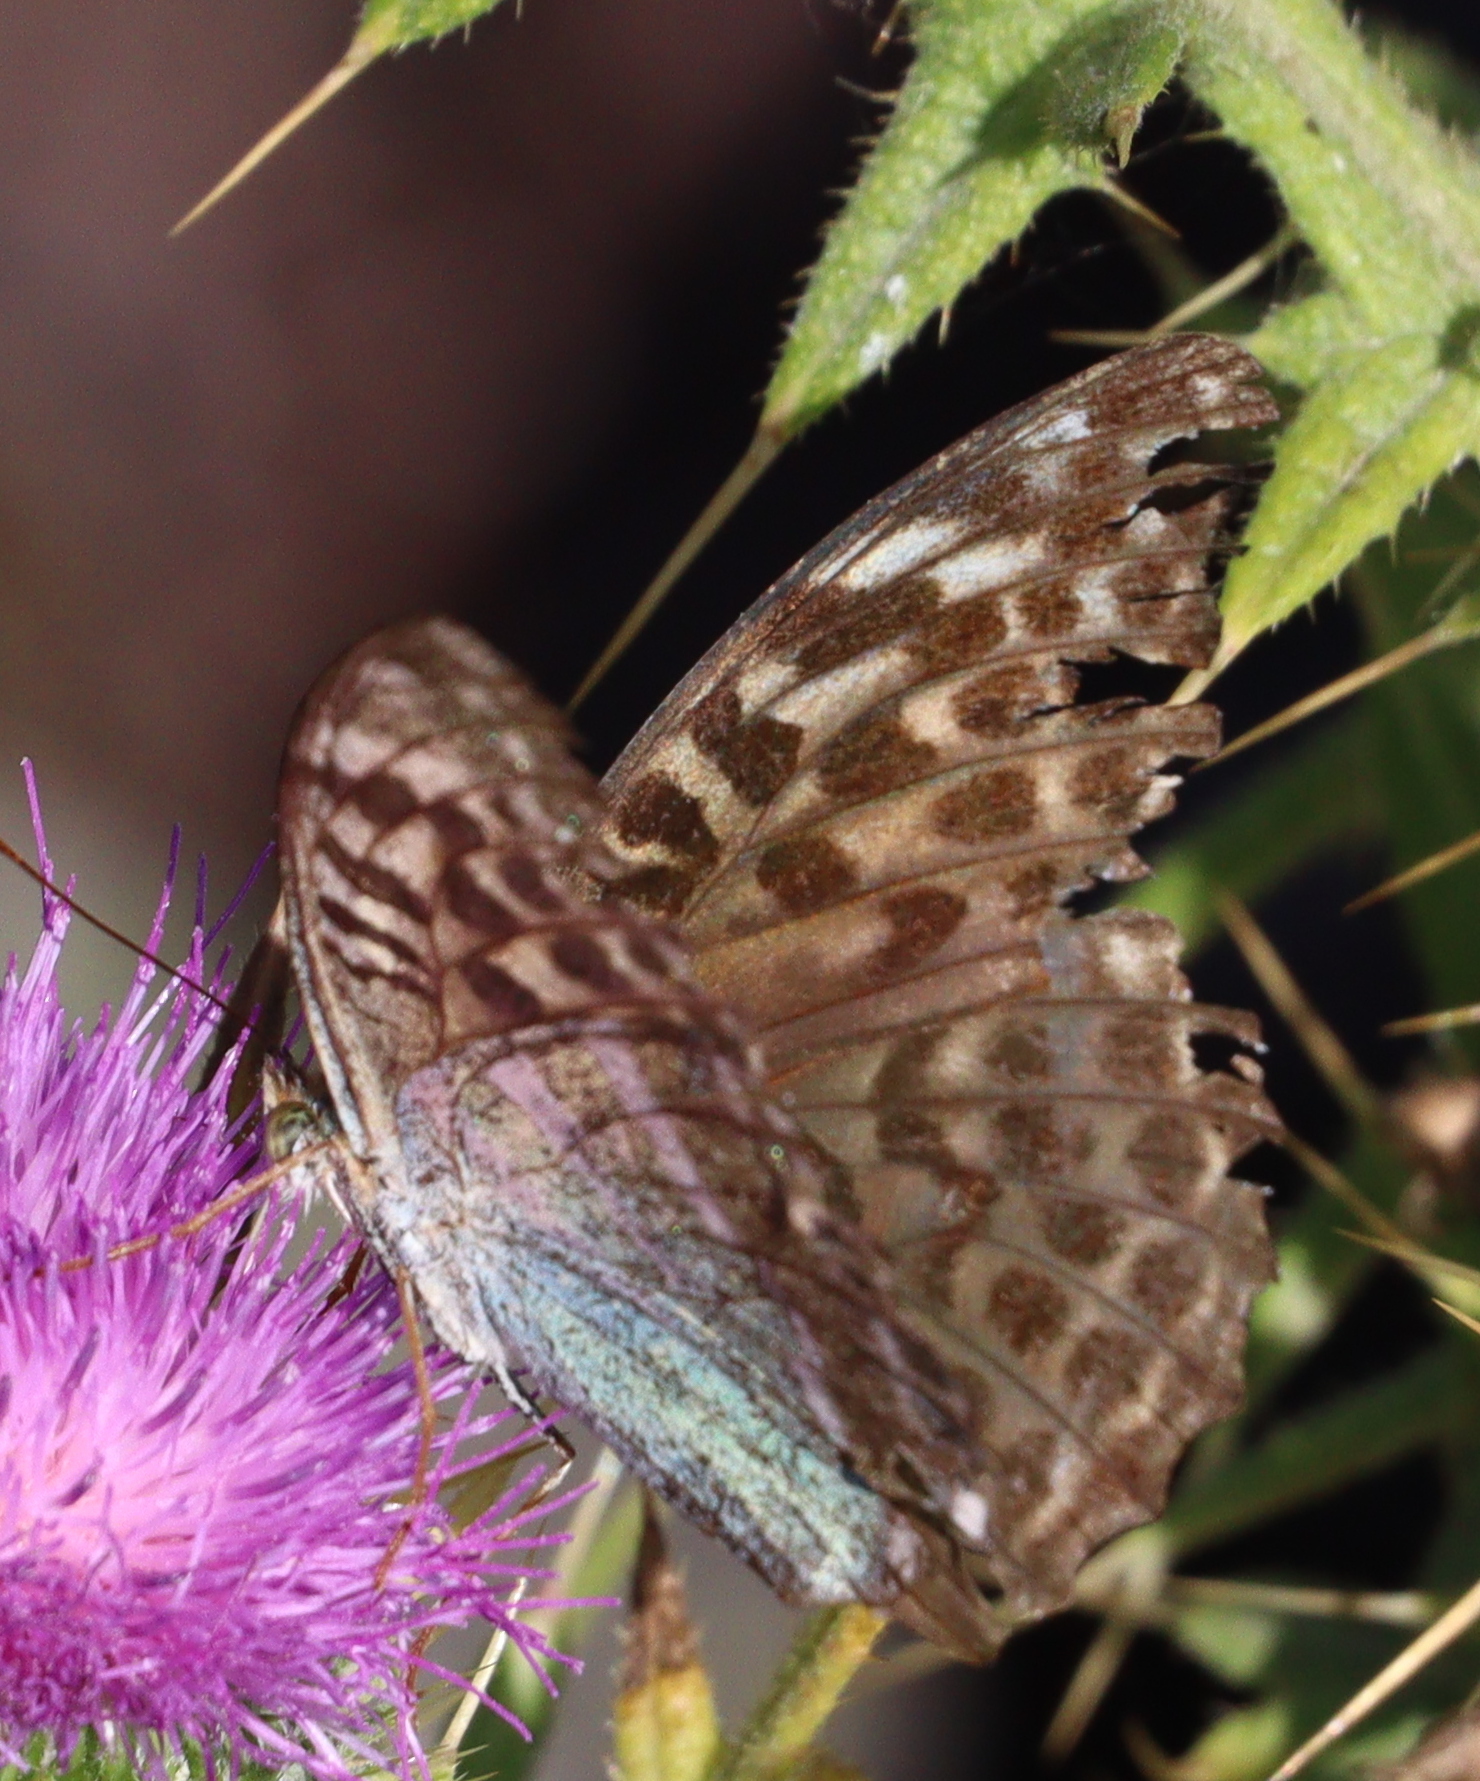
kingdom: Animalia
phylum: Arthropoda
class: Insecta
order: Lepidoptera
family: Nymphalidae
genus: Argynnis
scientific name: Argynnis paphia
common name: Silver-washed fritillary
